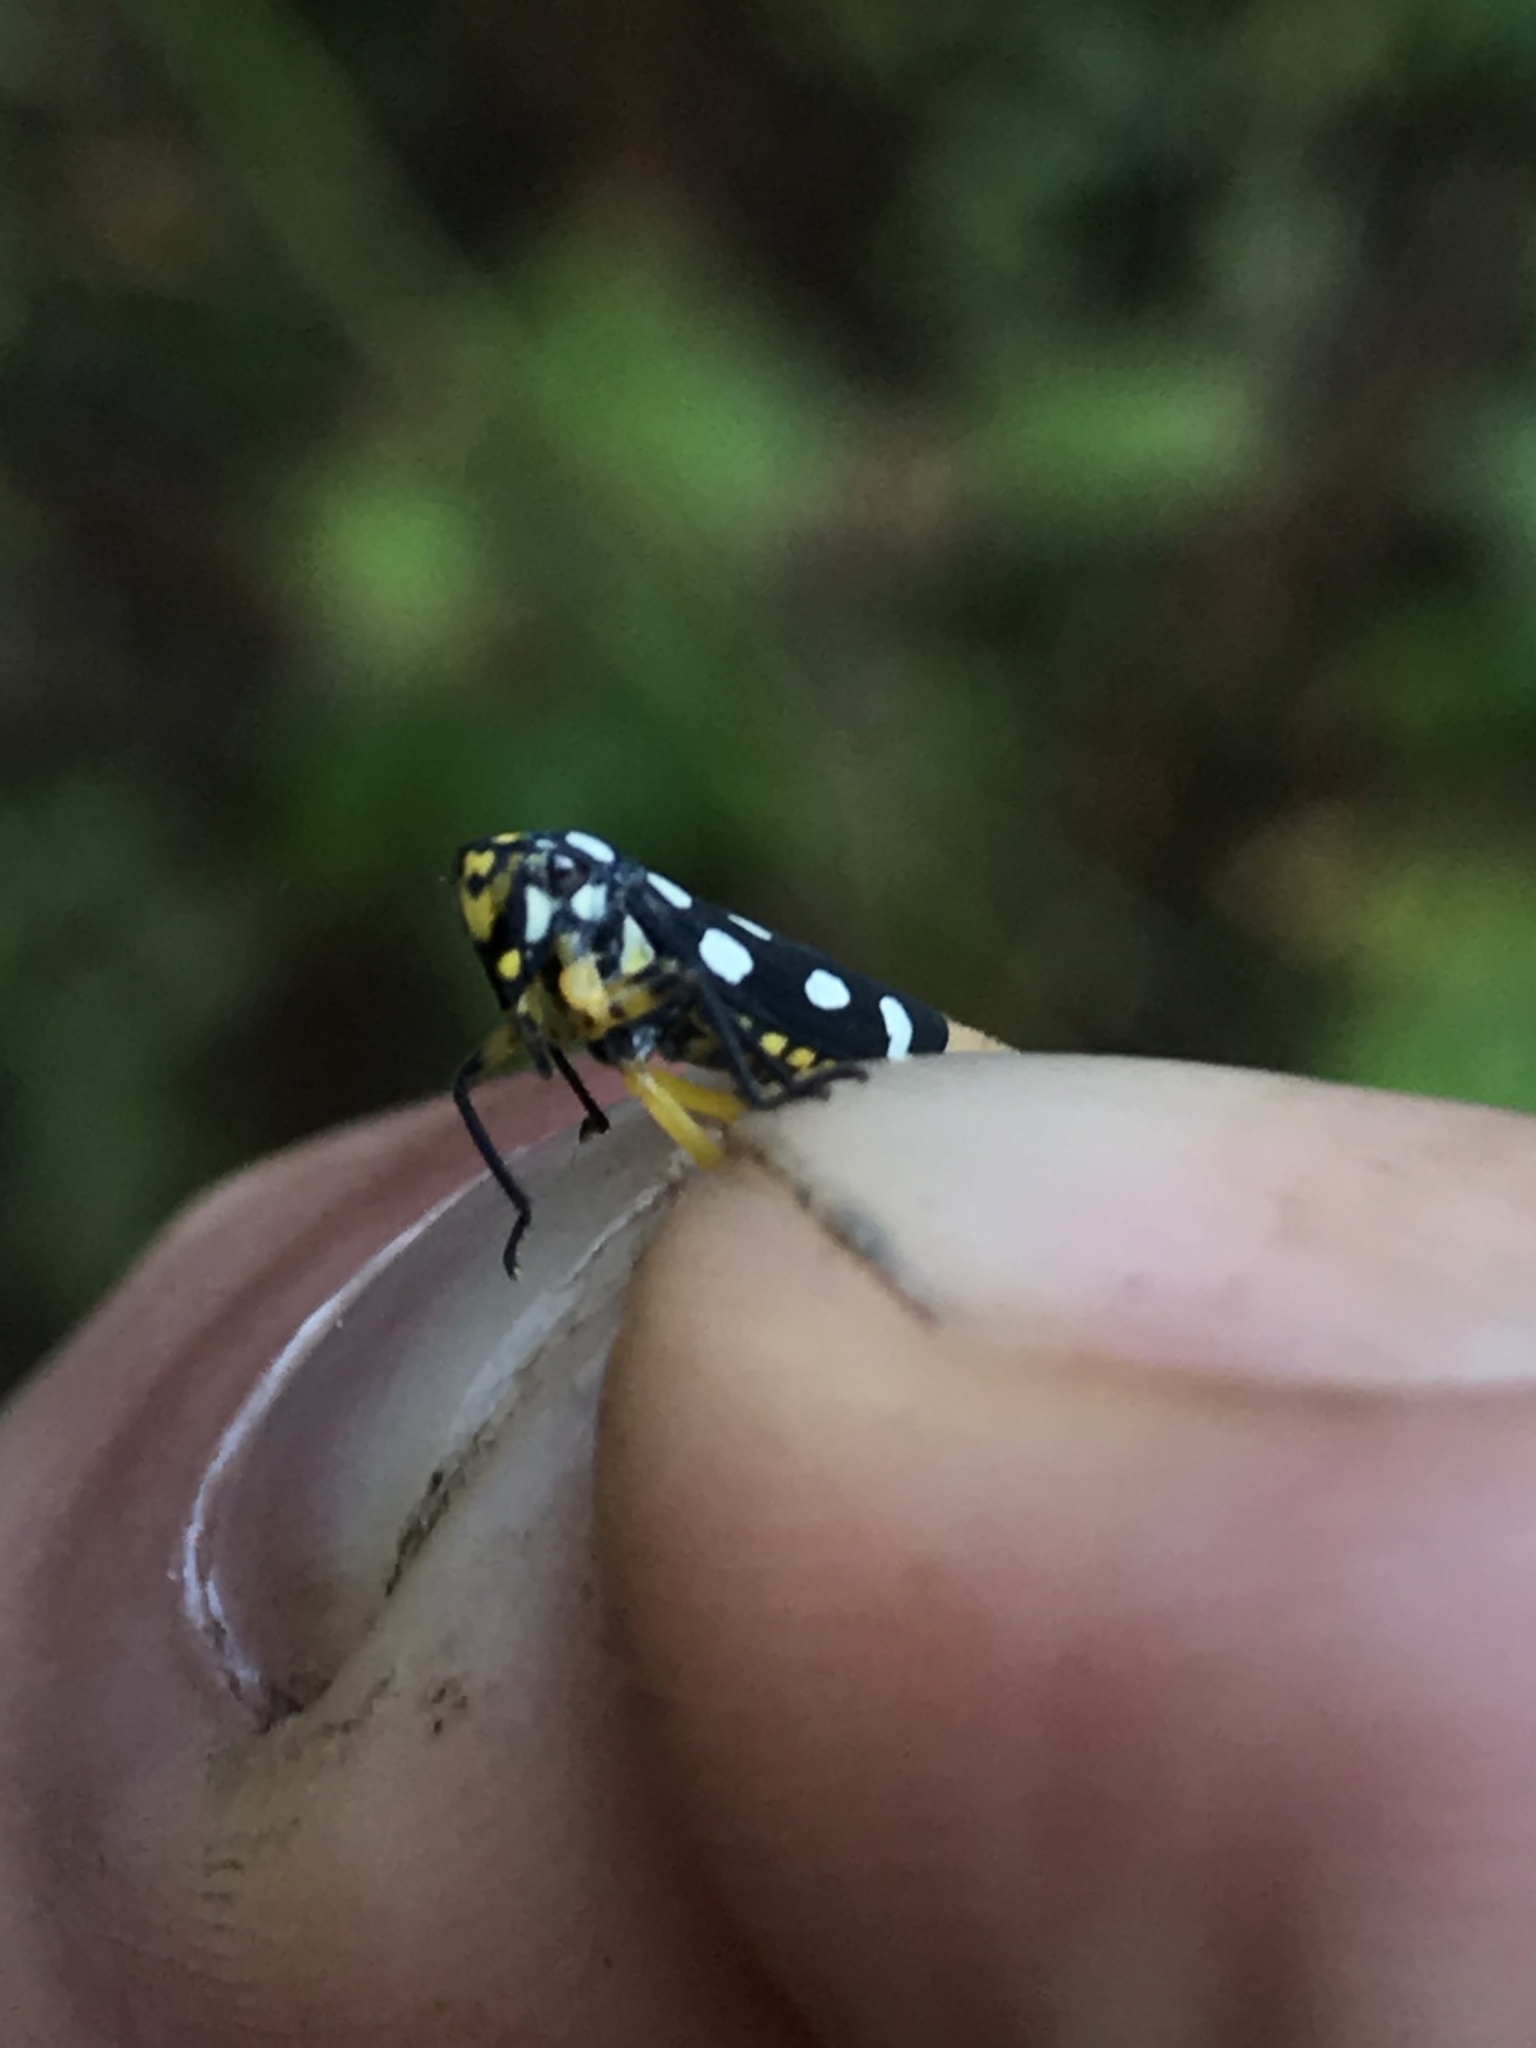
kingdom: Animalia
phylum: Arthropoda
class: Insecta
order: Hemiptera
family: Cicadellidae
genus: Stehlikiana
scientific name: Stehlikiana crassa
